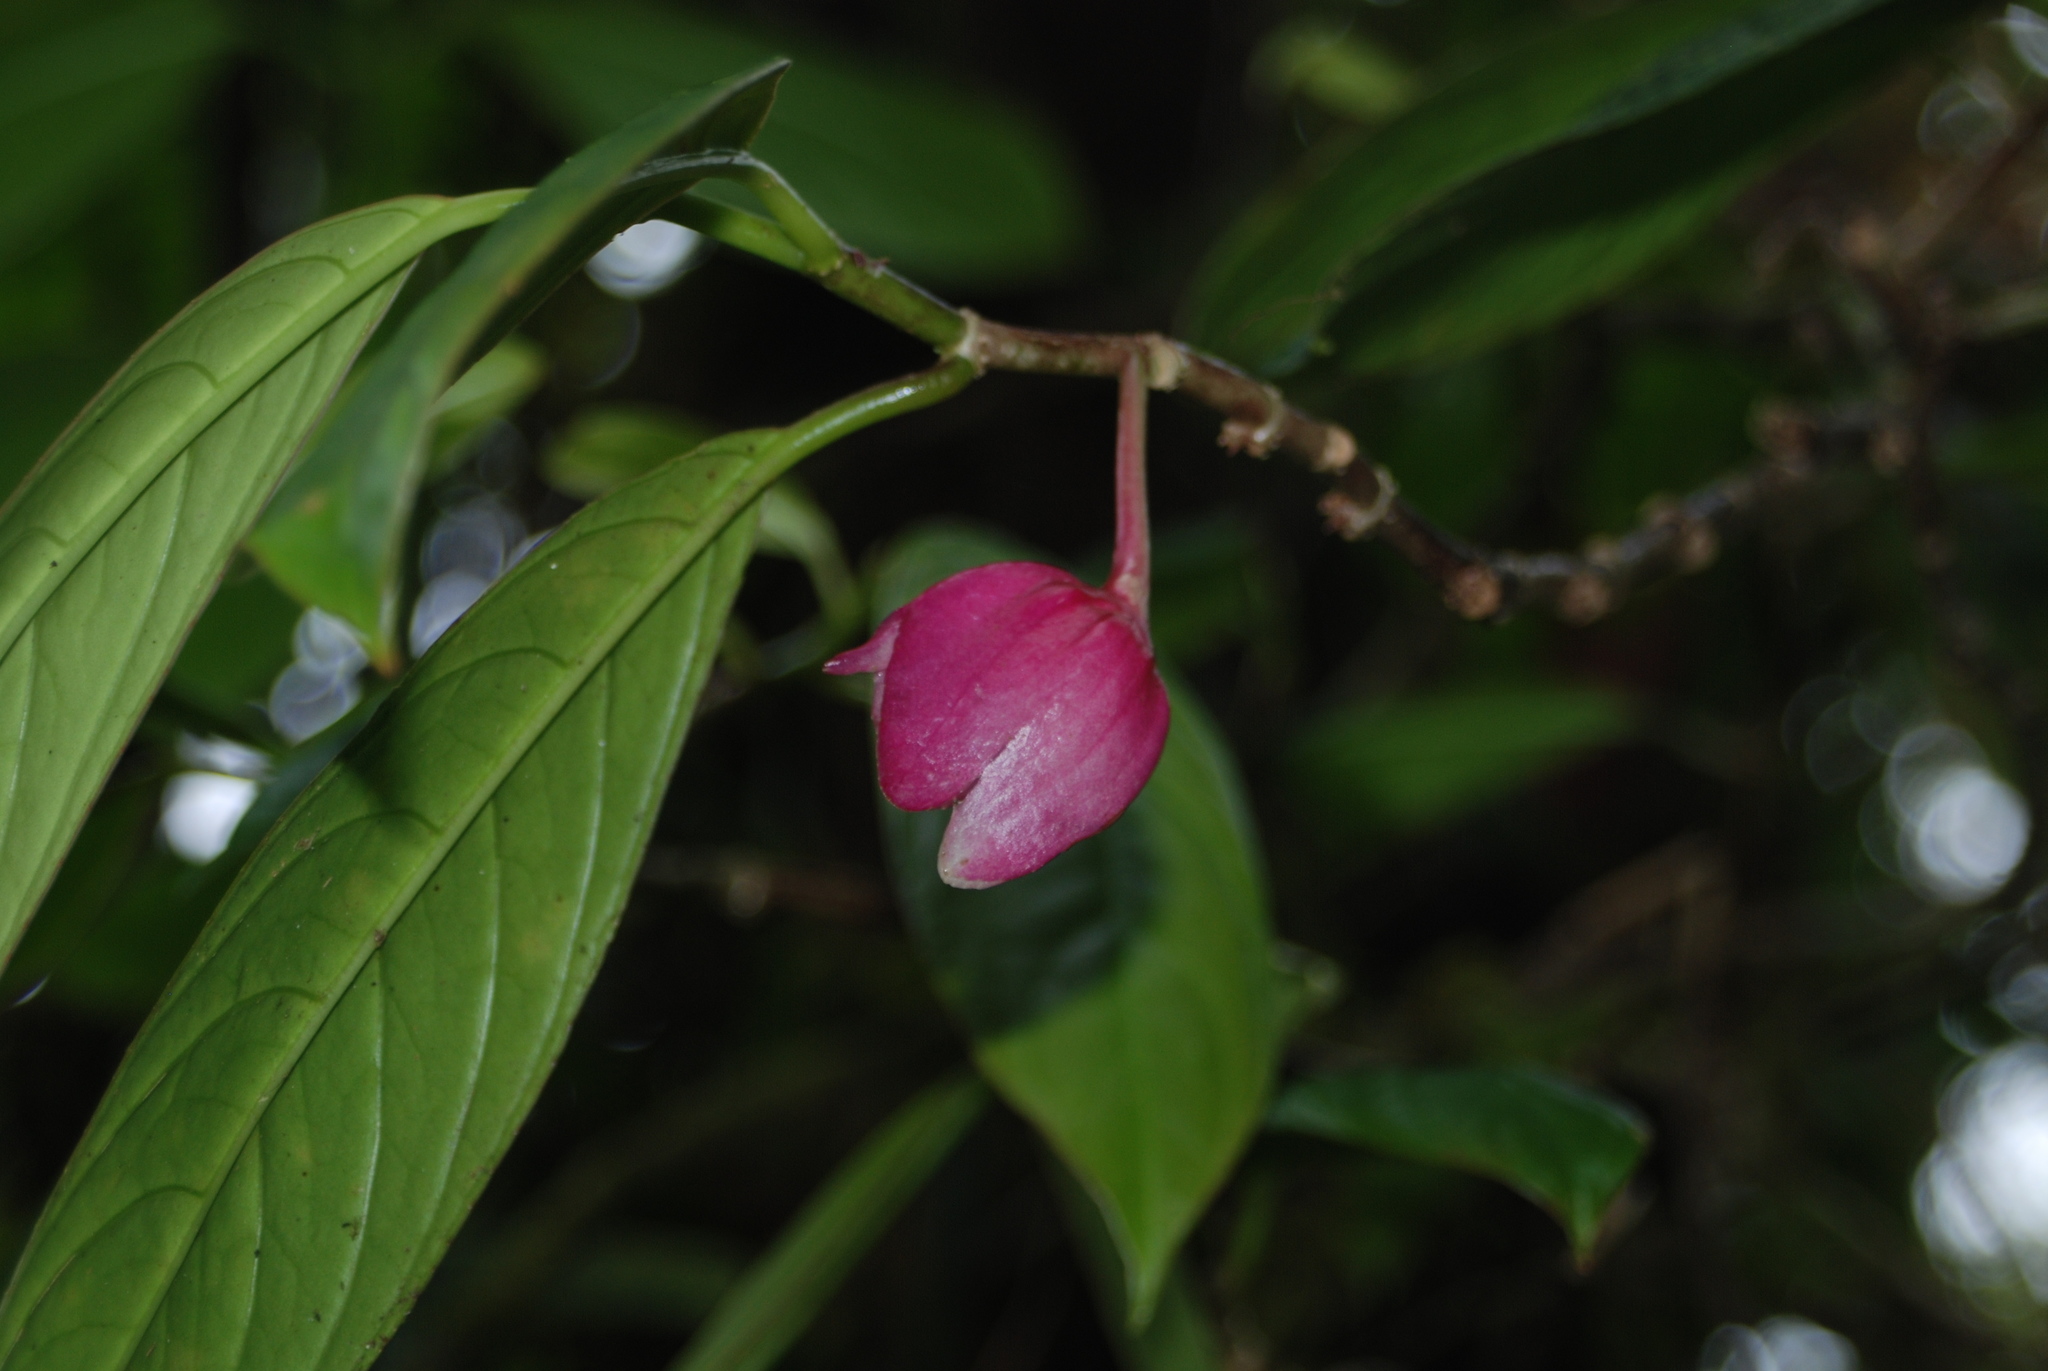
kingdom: Plantae
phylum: Tracheophyta
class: Magnoliopsida
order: Lamiales
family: Gesneriaceae
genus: Drymonia
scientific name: Drymonia conchocalyx
